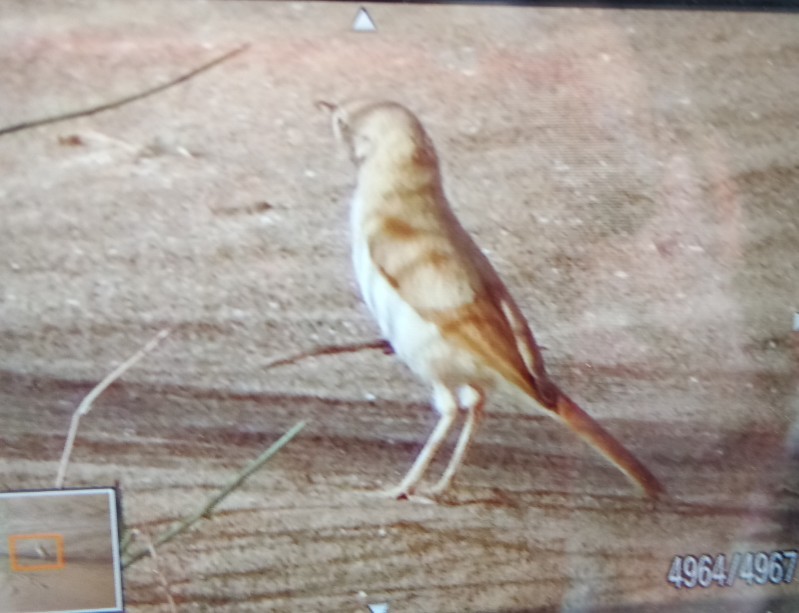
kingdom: Animalia
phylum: Chordata
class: Aves
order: Passeriformes
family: Sylviidae
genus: Sylvia
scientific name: Sylvia deserti
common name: African desert warbler
